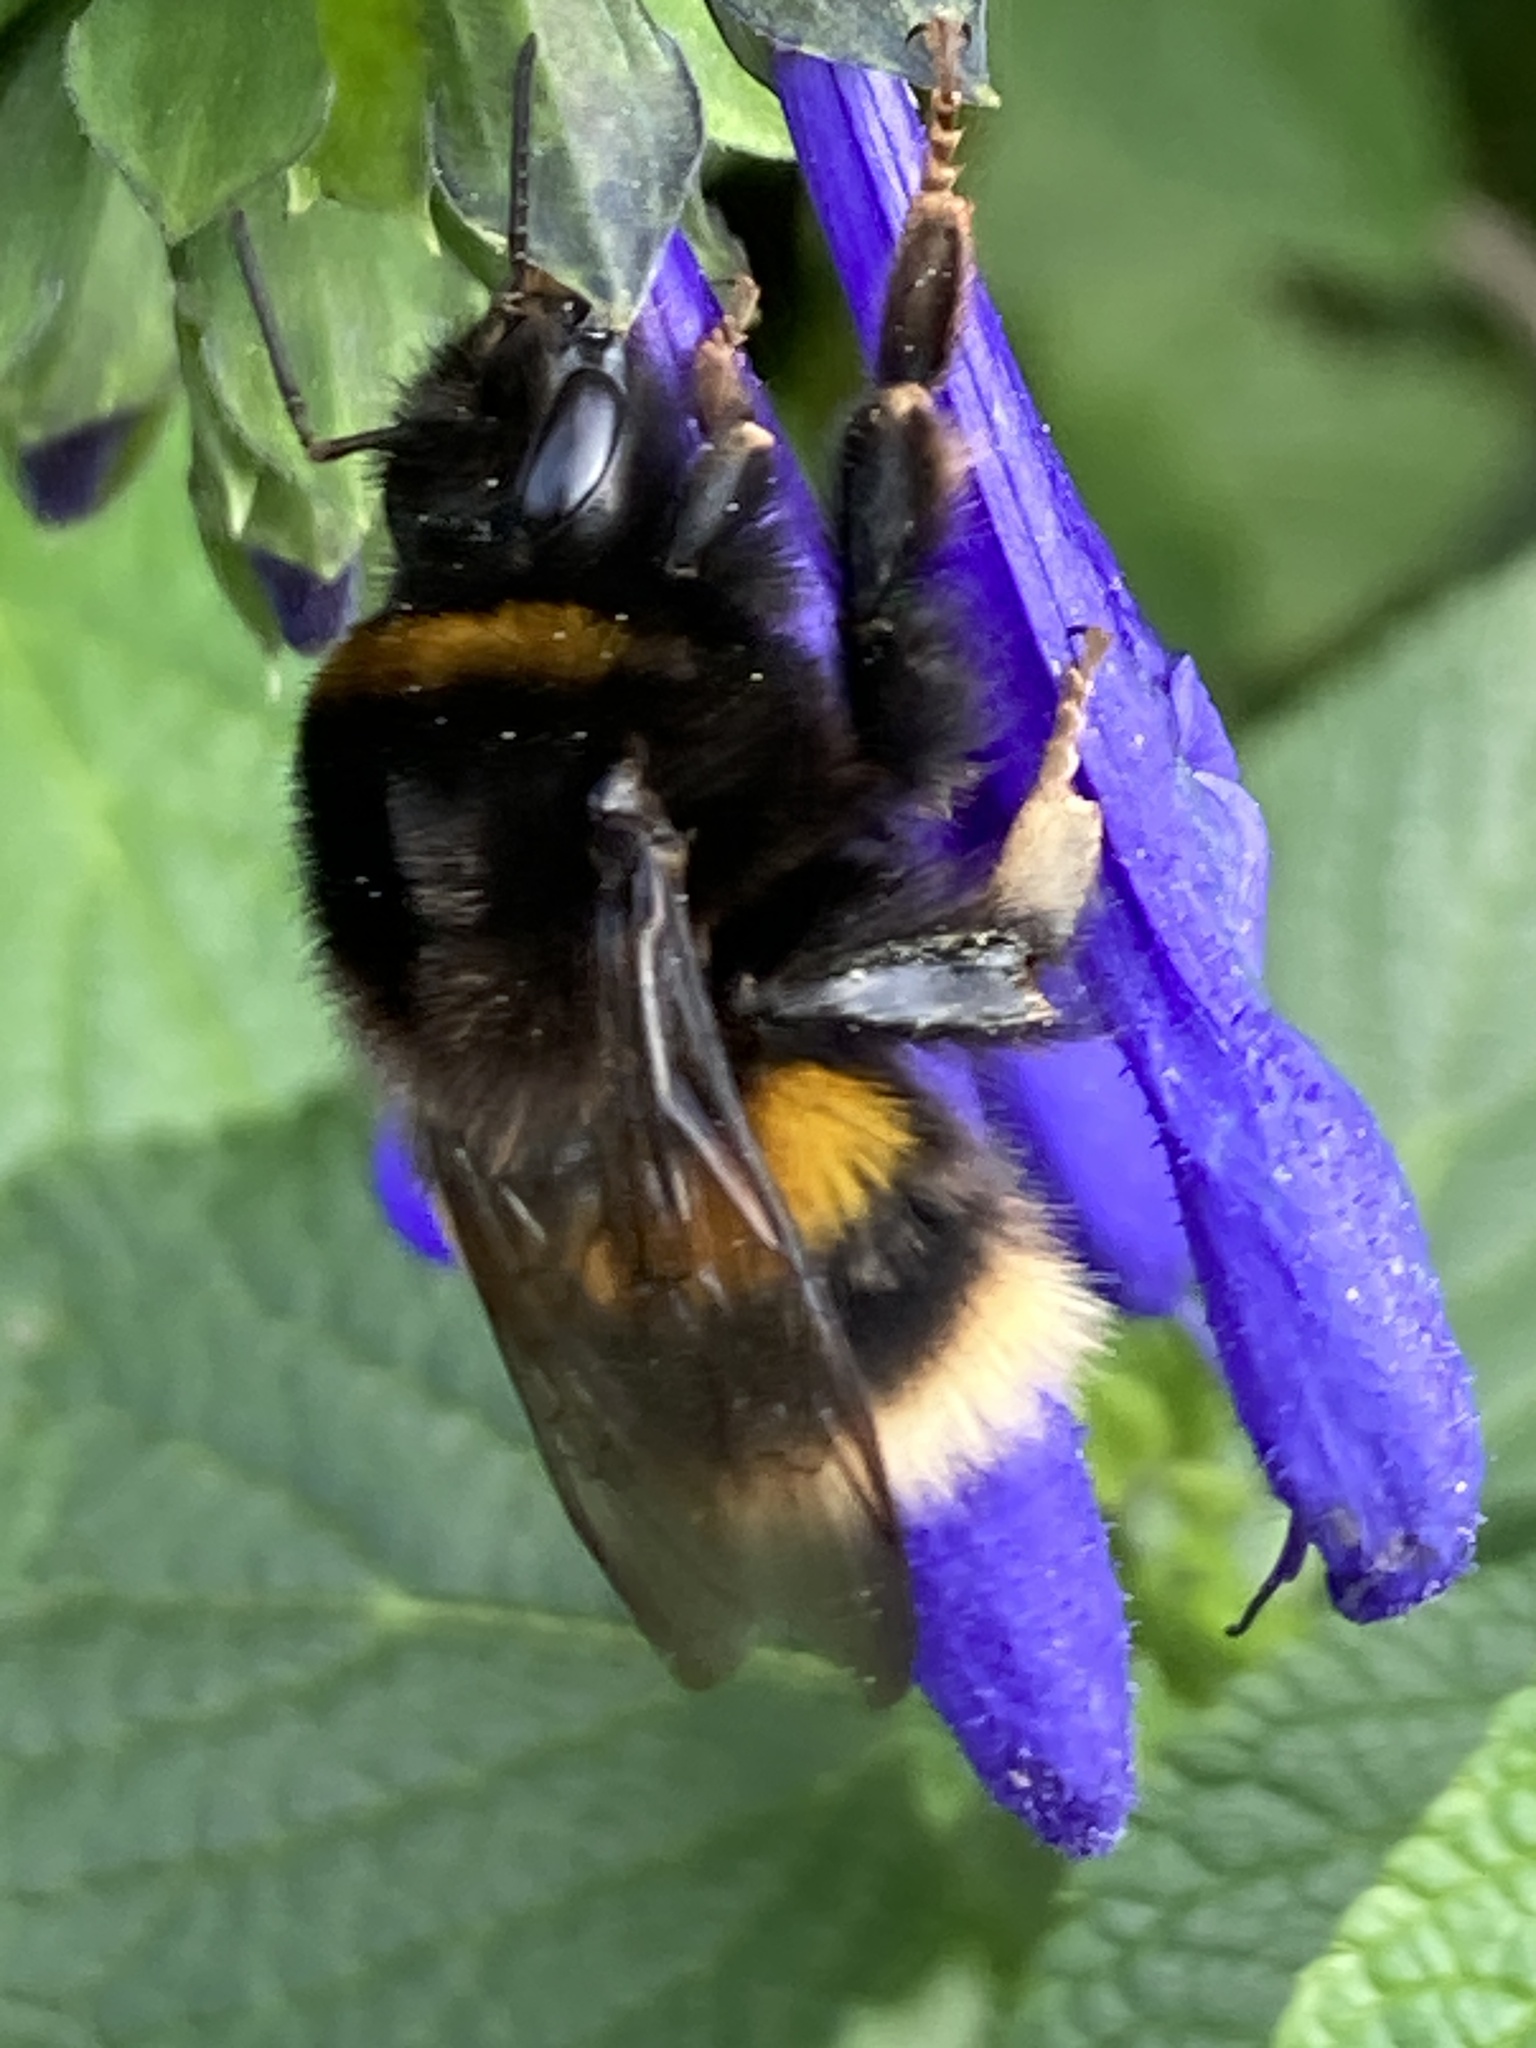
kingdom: Animalia
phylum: Arthropoda
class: Insecta
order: Hymenoptera
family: Apidae
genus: Bombus
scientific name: Bombus terrestris
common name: Buff-tailed bumblebee
